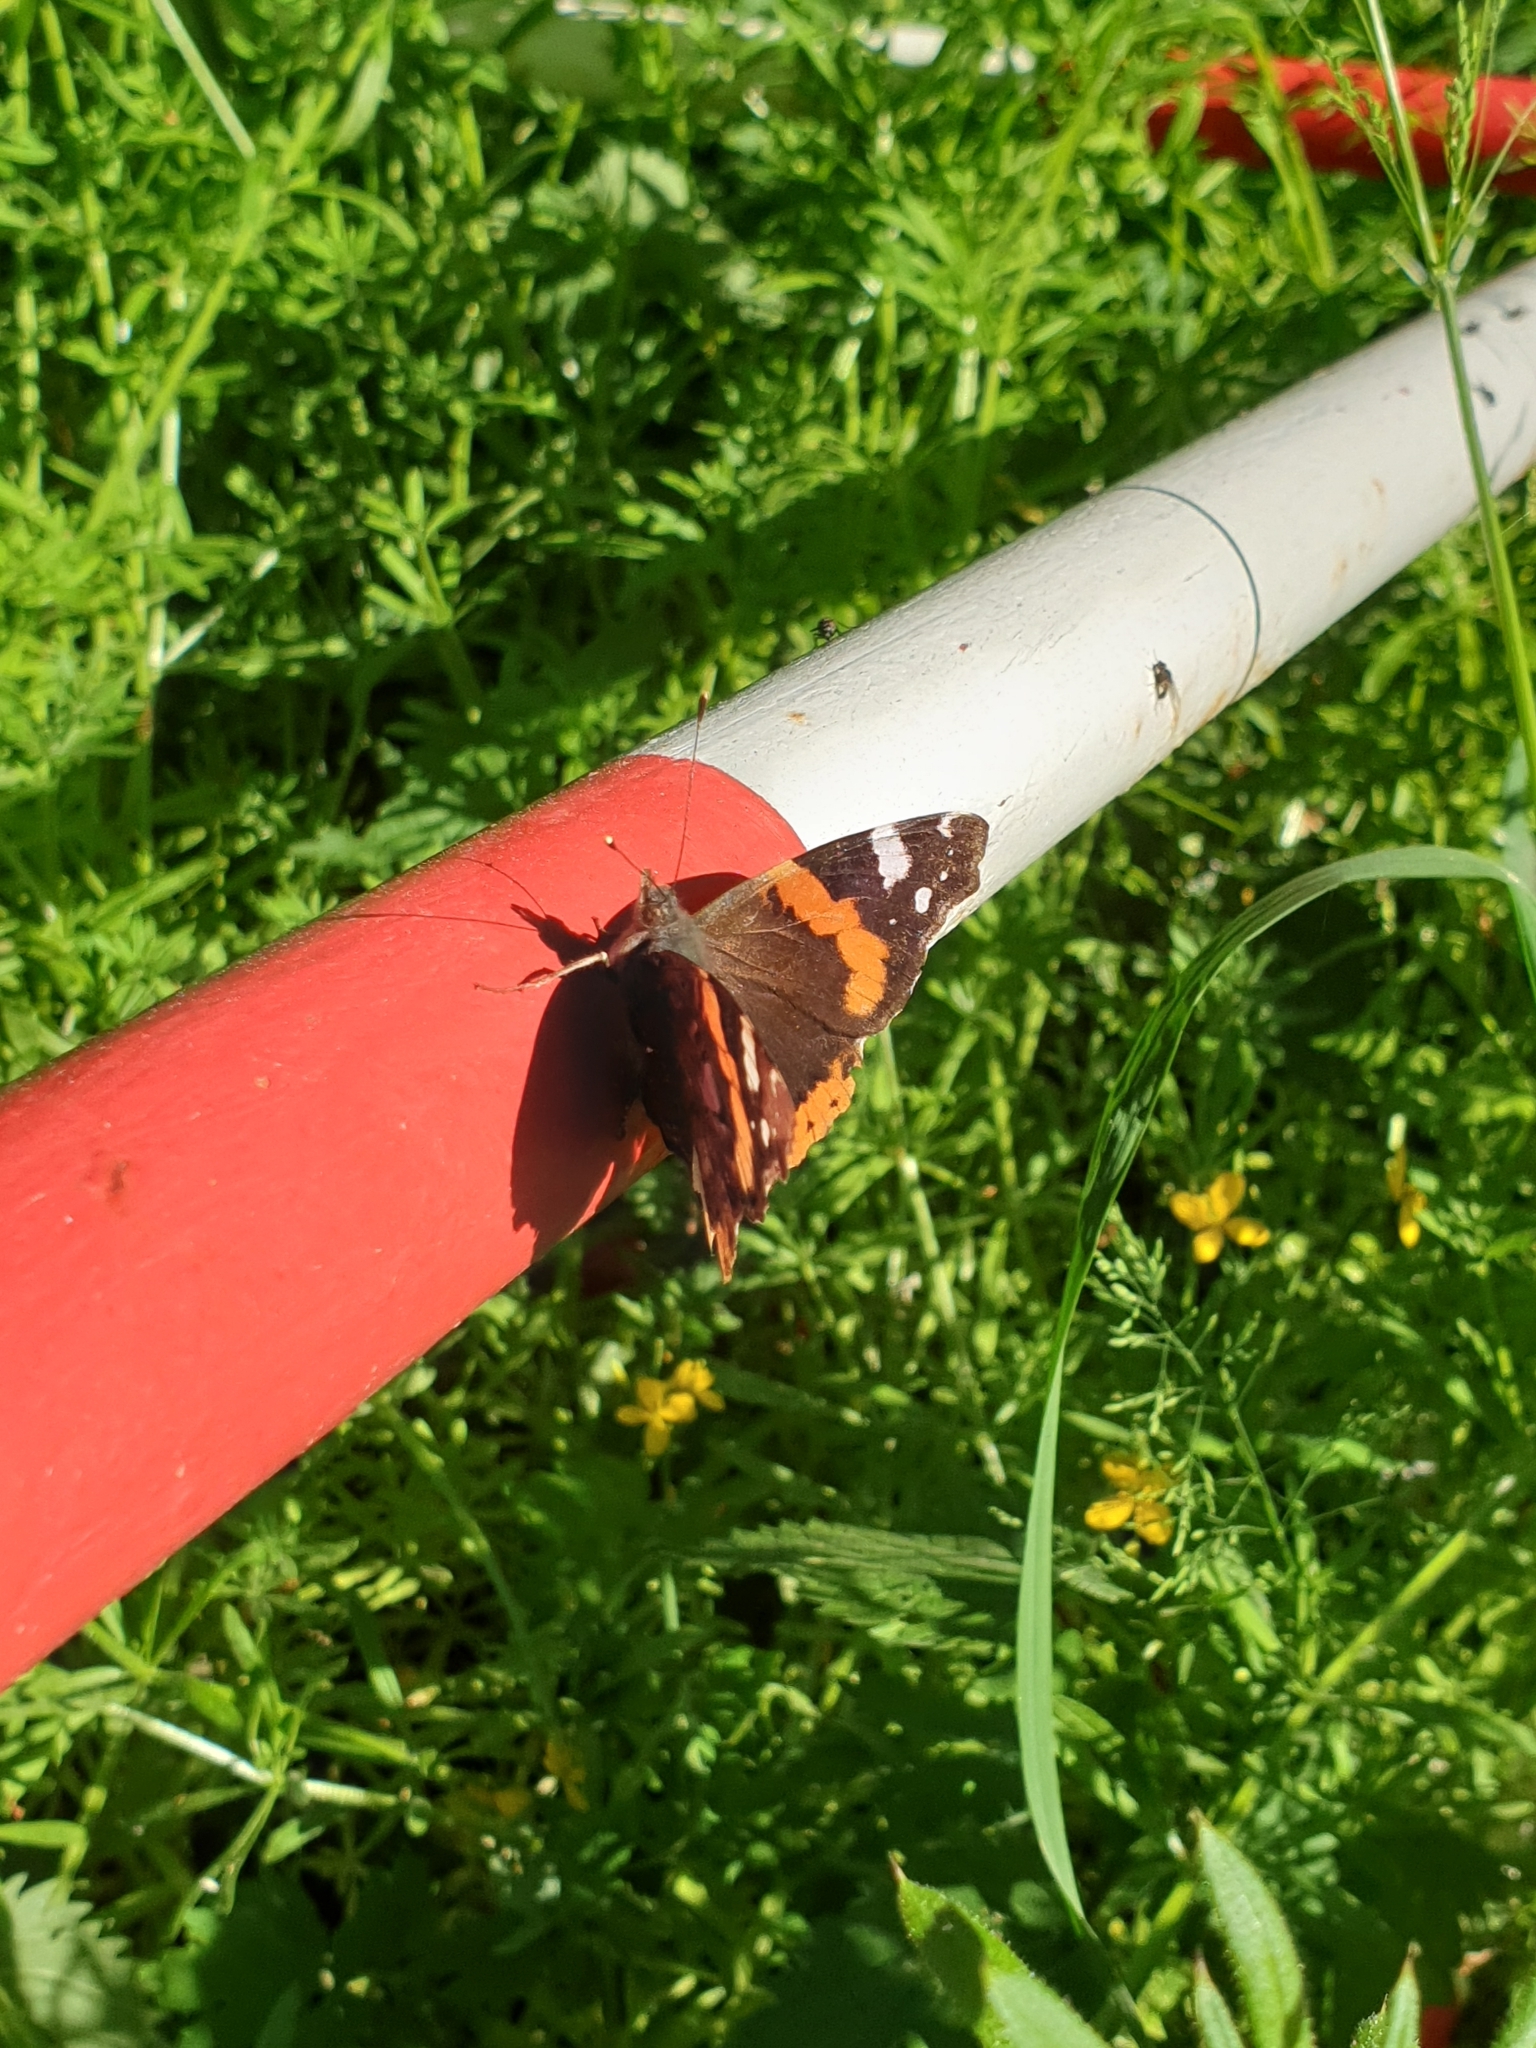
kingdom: Animalia
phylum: Arthropoda
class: Insecta
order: Lepidoptera
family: Nymphalidae
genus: Vanessa
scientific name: Vanessa atalanta
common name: Red admiral
